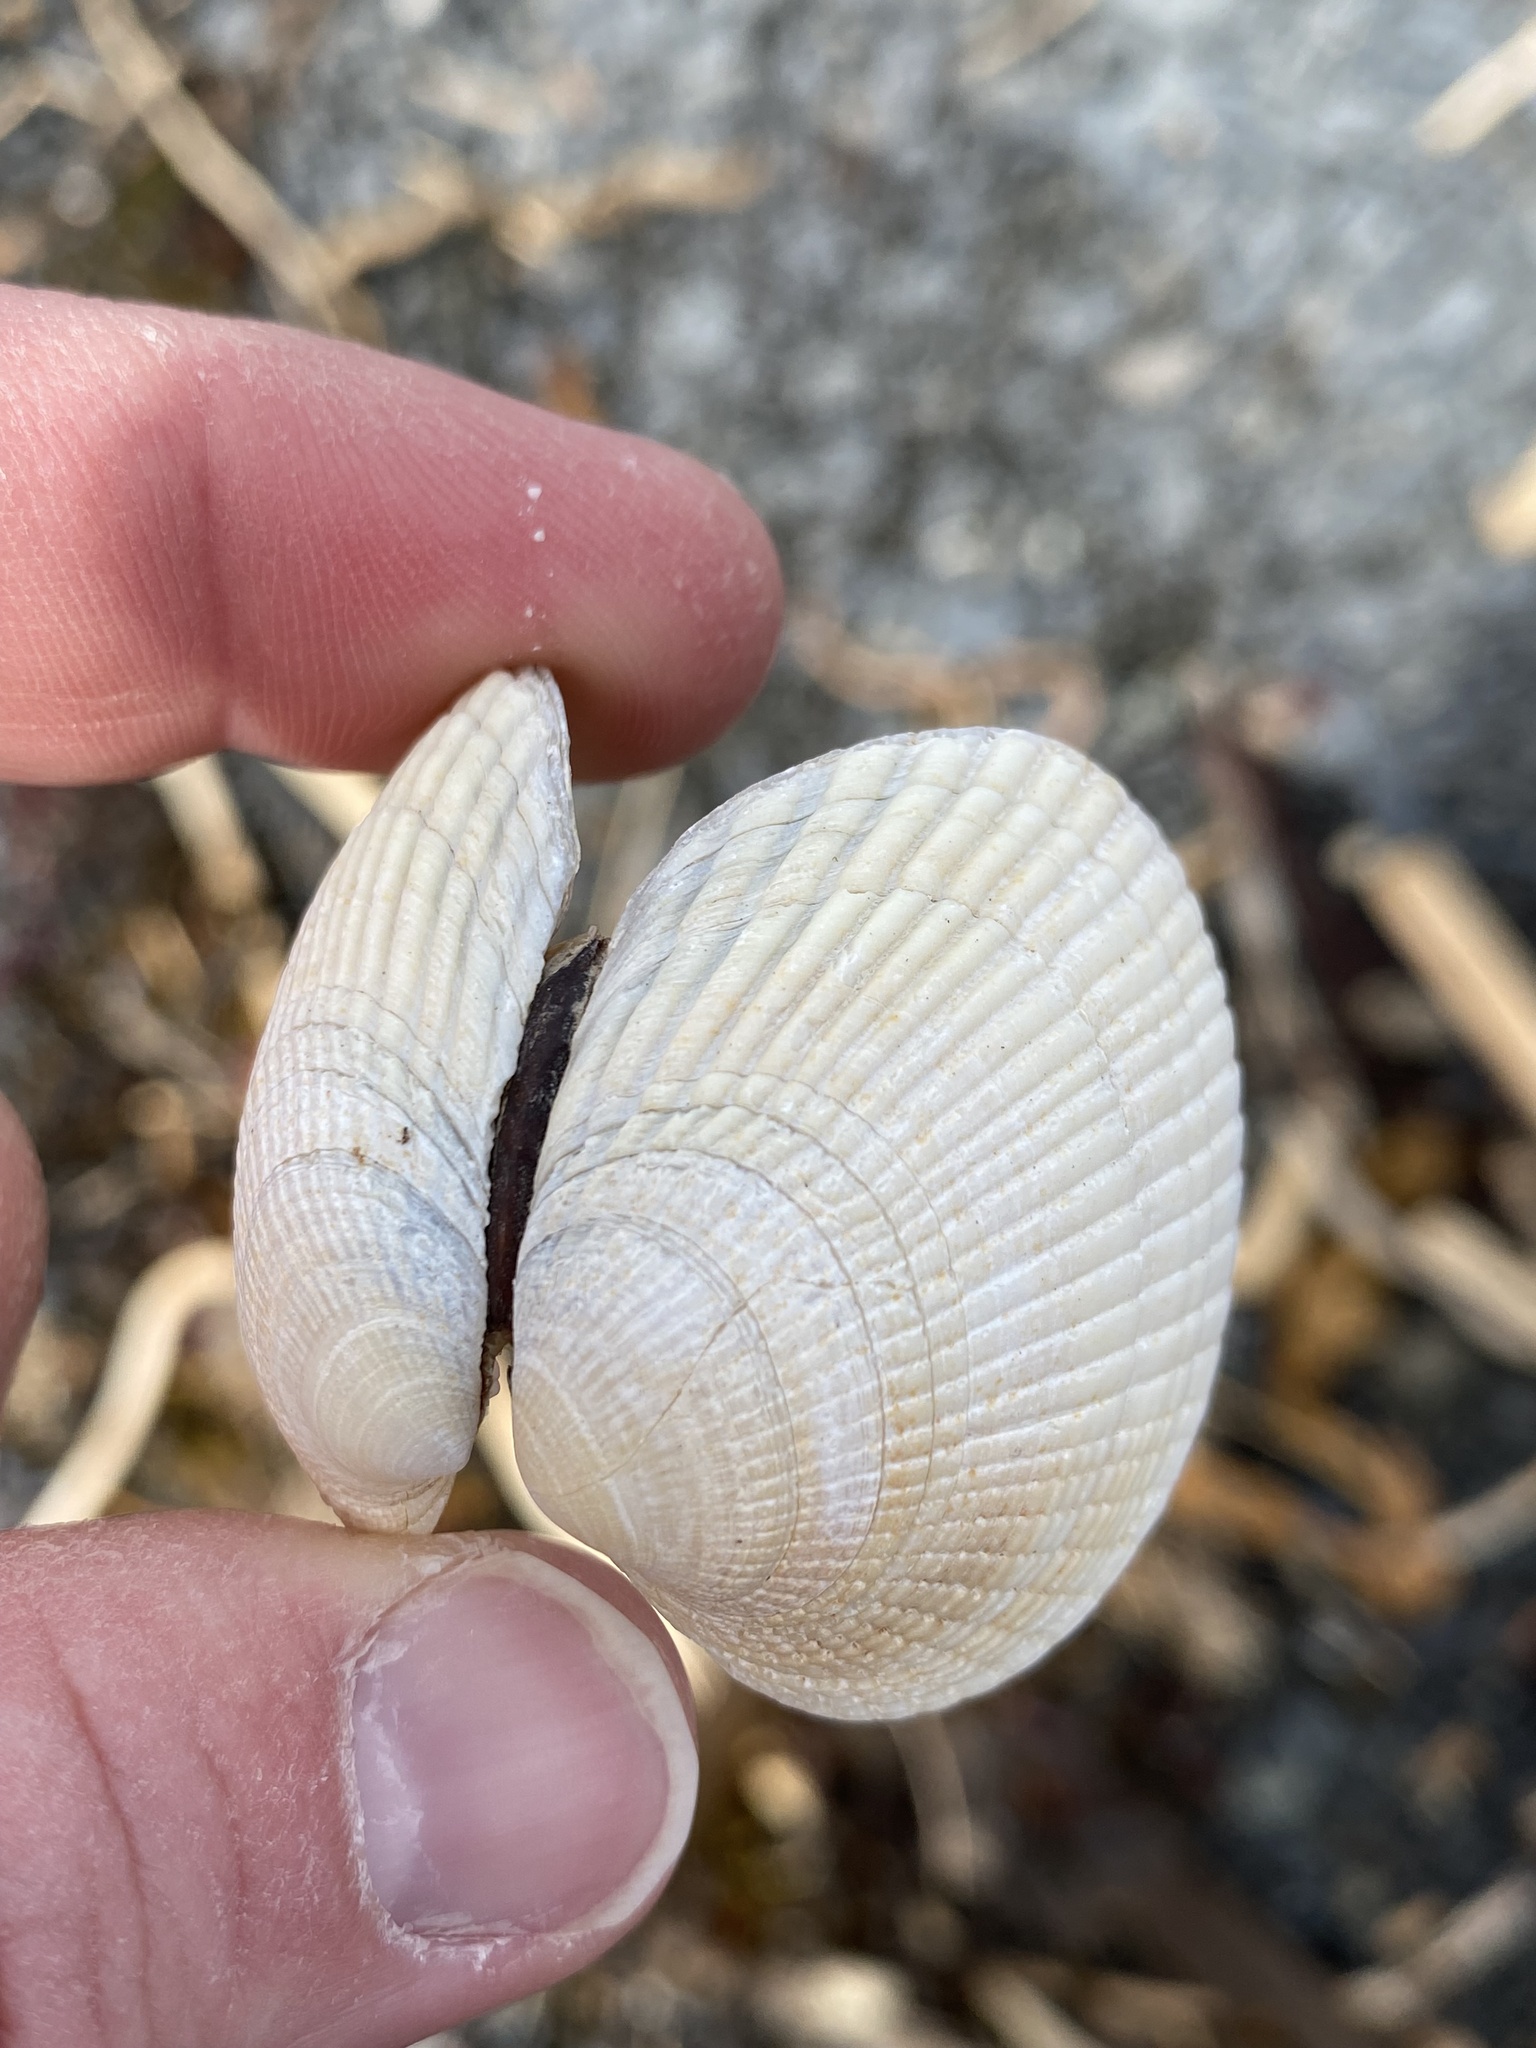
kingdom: Animalia
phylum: Mollusca
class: Bivalvia
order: Venerida
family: Veneridae
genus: Leukoma
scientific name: Leukoma crassicosta
